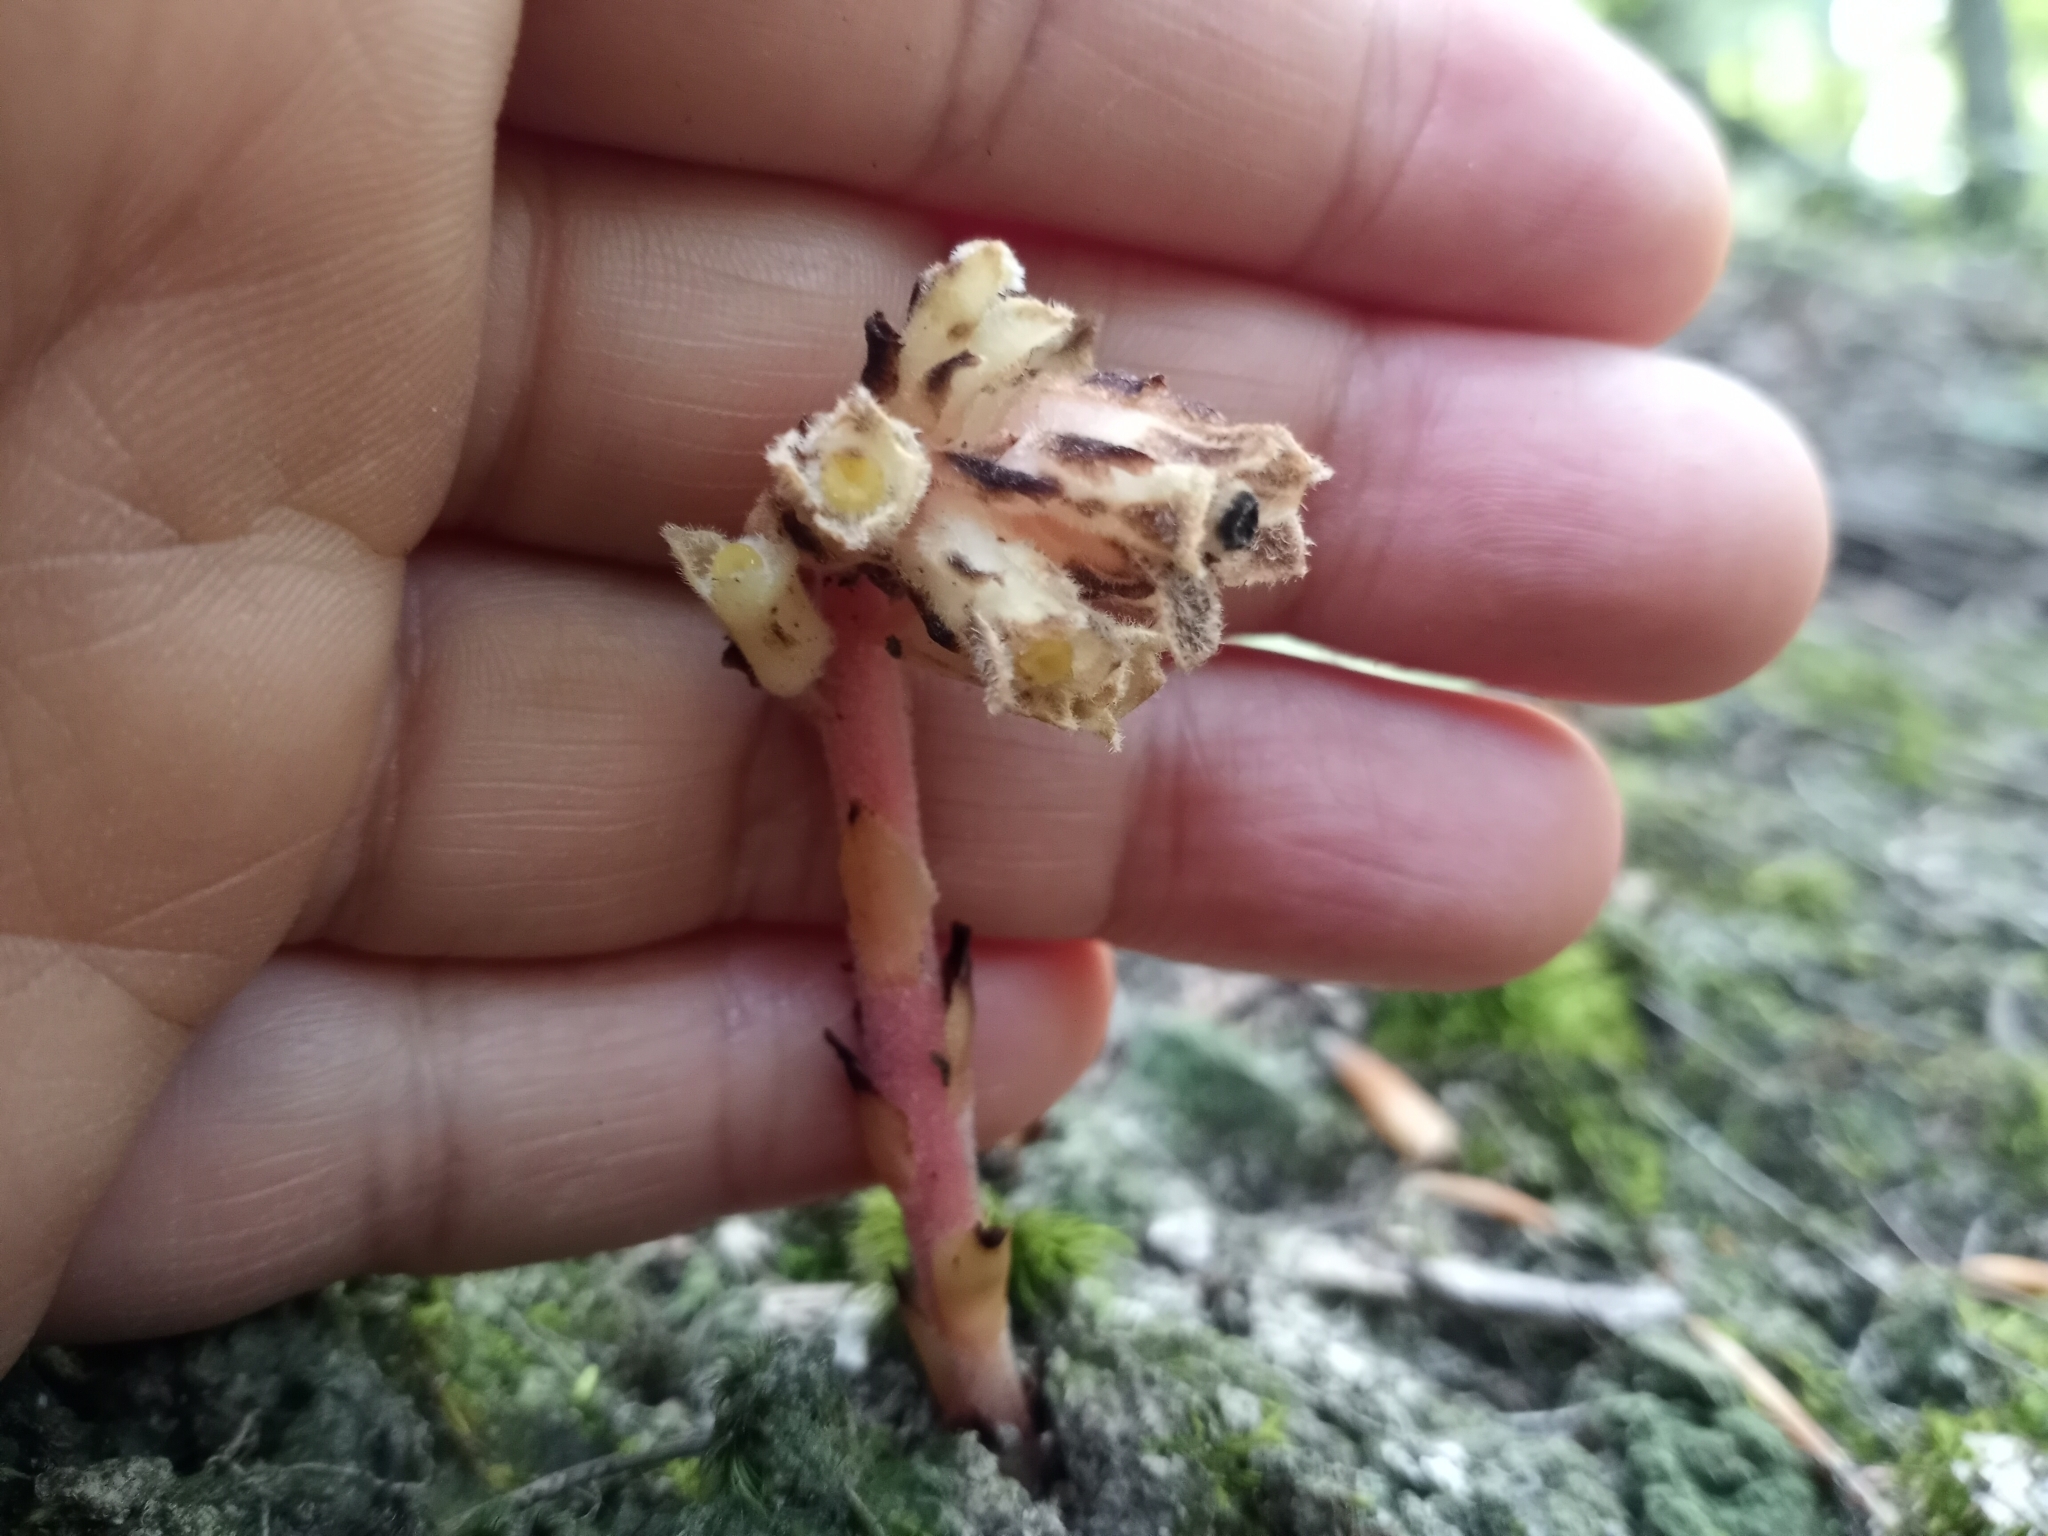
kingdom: Plantae
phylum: Tracheophyta
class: Magnoliopsida
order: Ericales
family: Ericaceae
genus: Hypopitys
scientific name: Hypopitys monotropa
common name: Yellow bird's-nest
